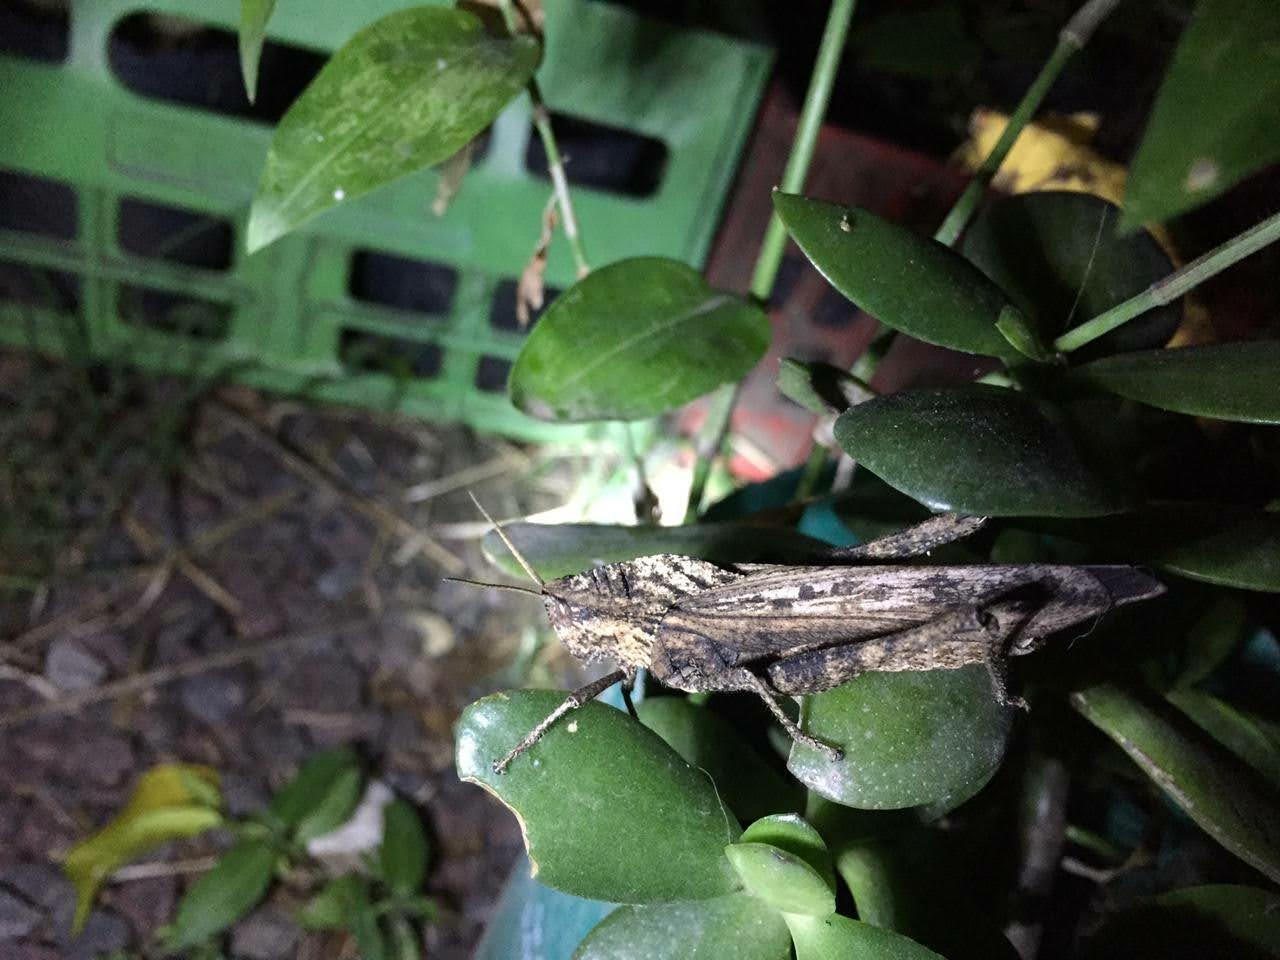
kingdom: Animalia
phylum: Arthropoda
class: Insecta
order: Orthoptera
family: Romaleidae
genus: Xyleus
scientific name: Xyleus discoideus
